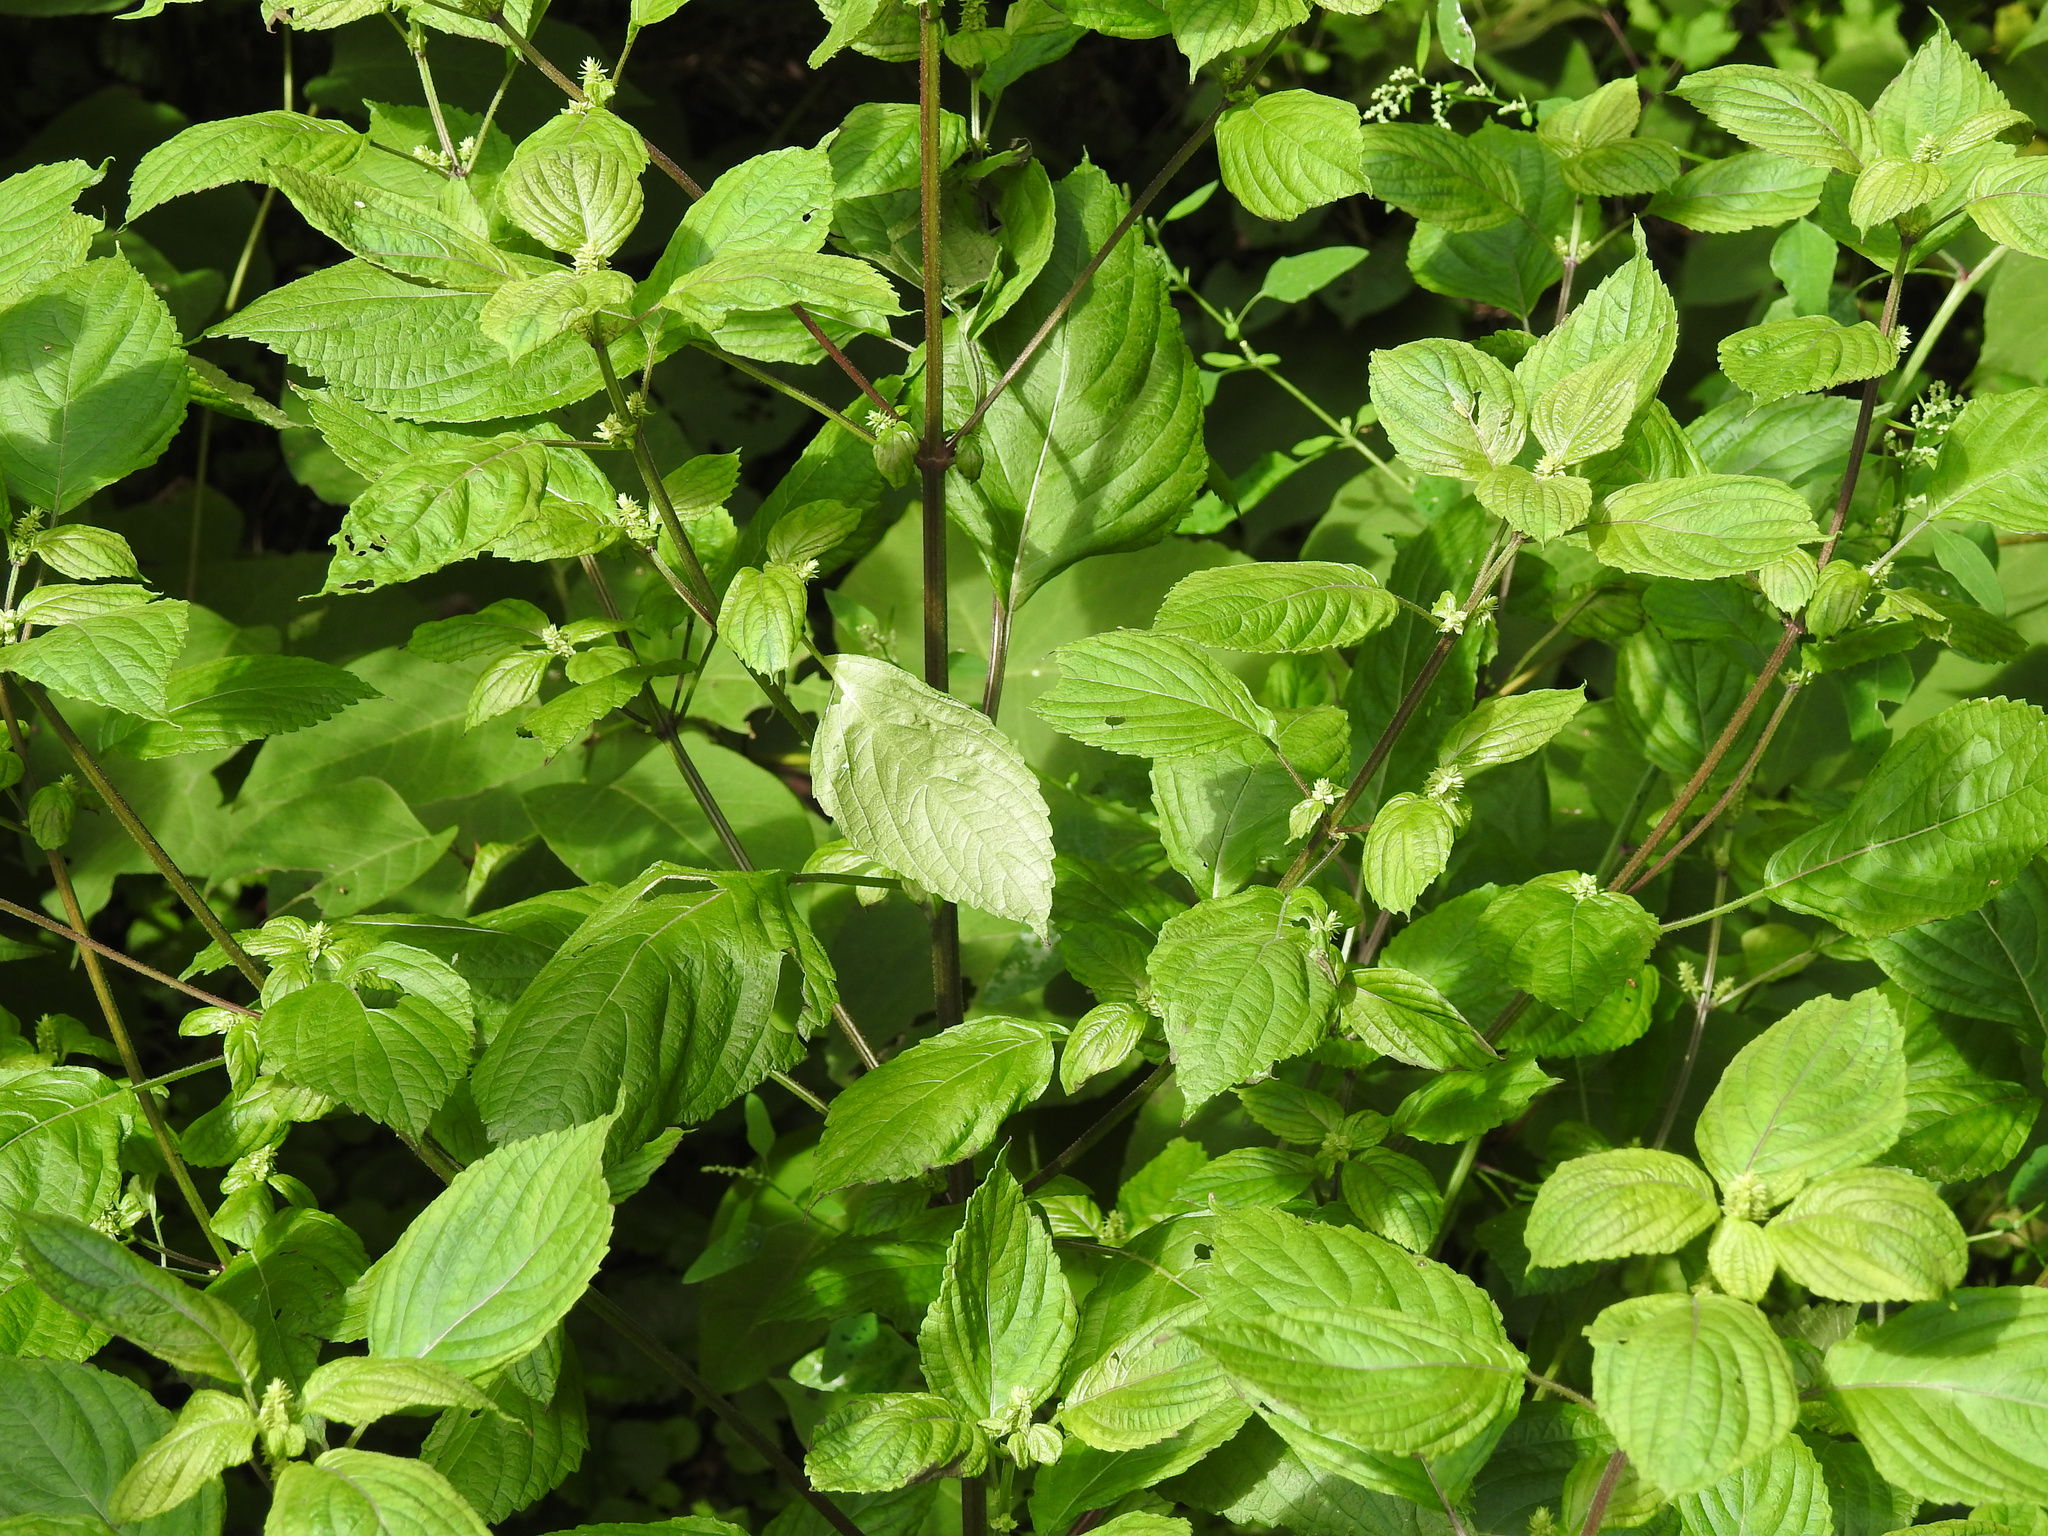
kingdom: Plantae
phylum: Tracheophyta
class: Magnoliopsida
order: Lamiales
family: Lamiaceae
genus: Perilla
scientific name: Perilla frutescens
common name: Perilla
